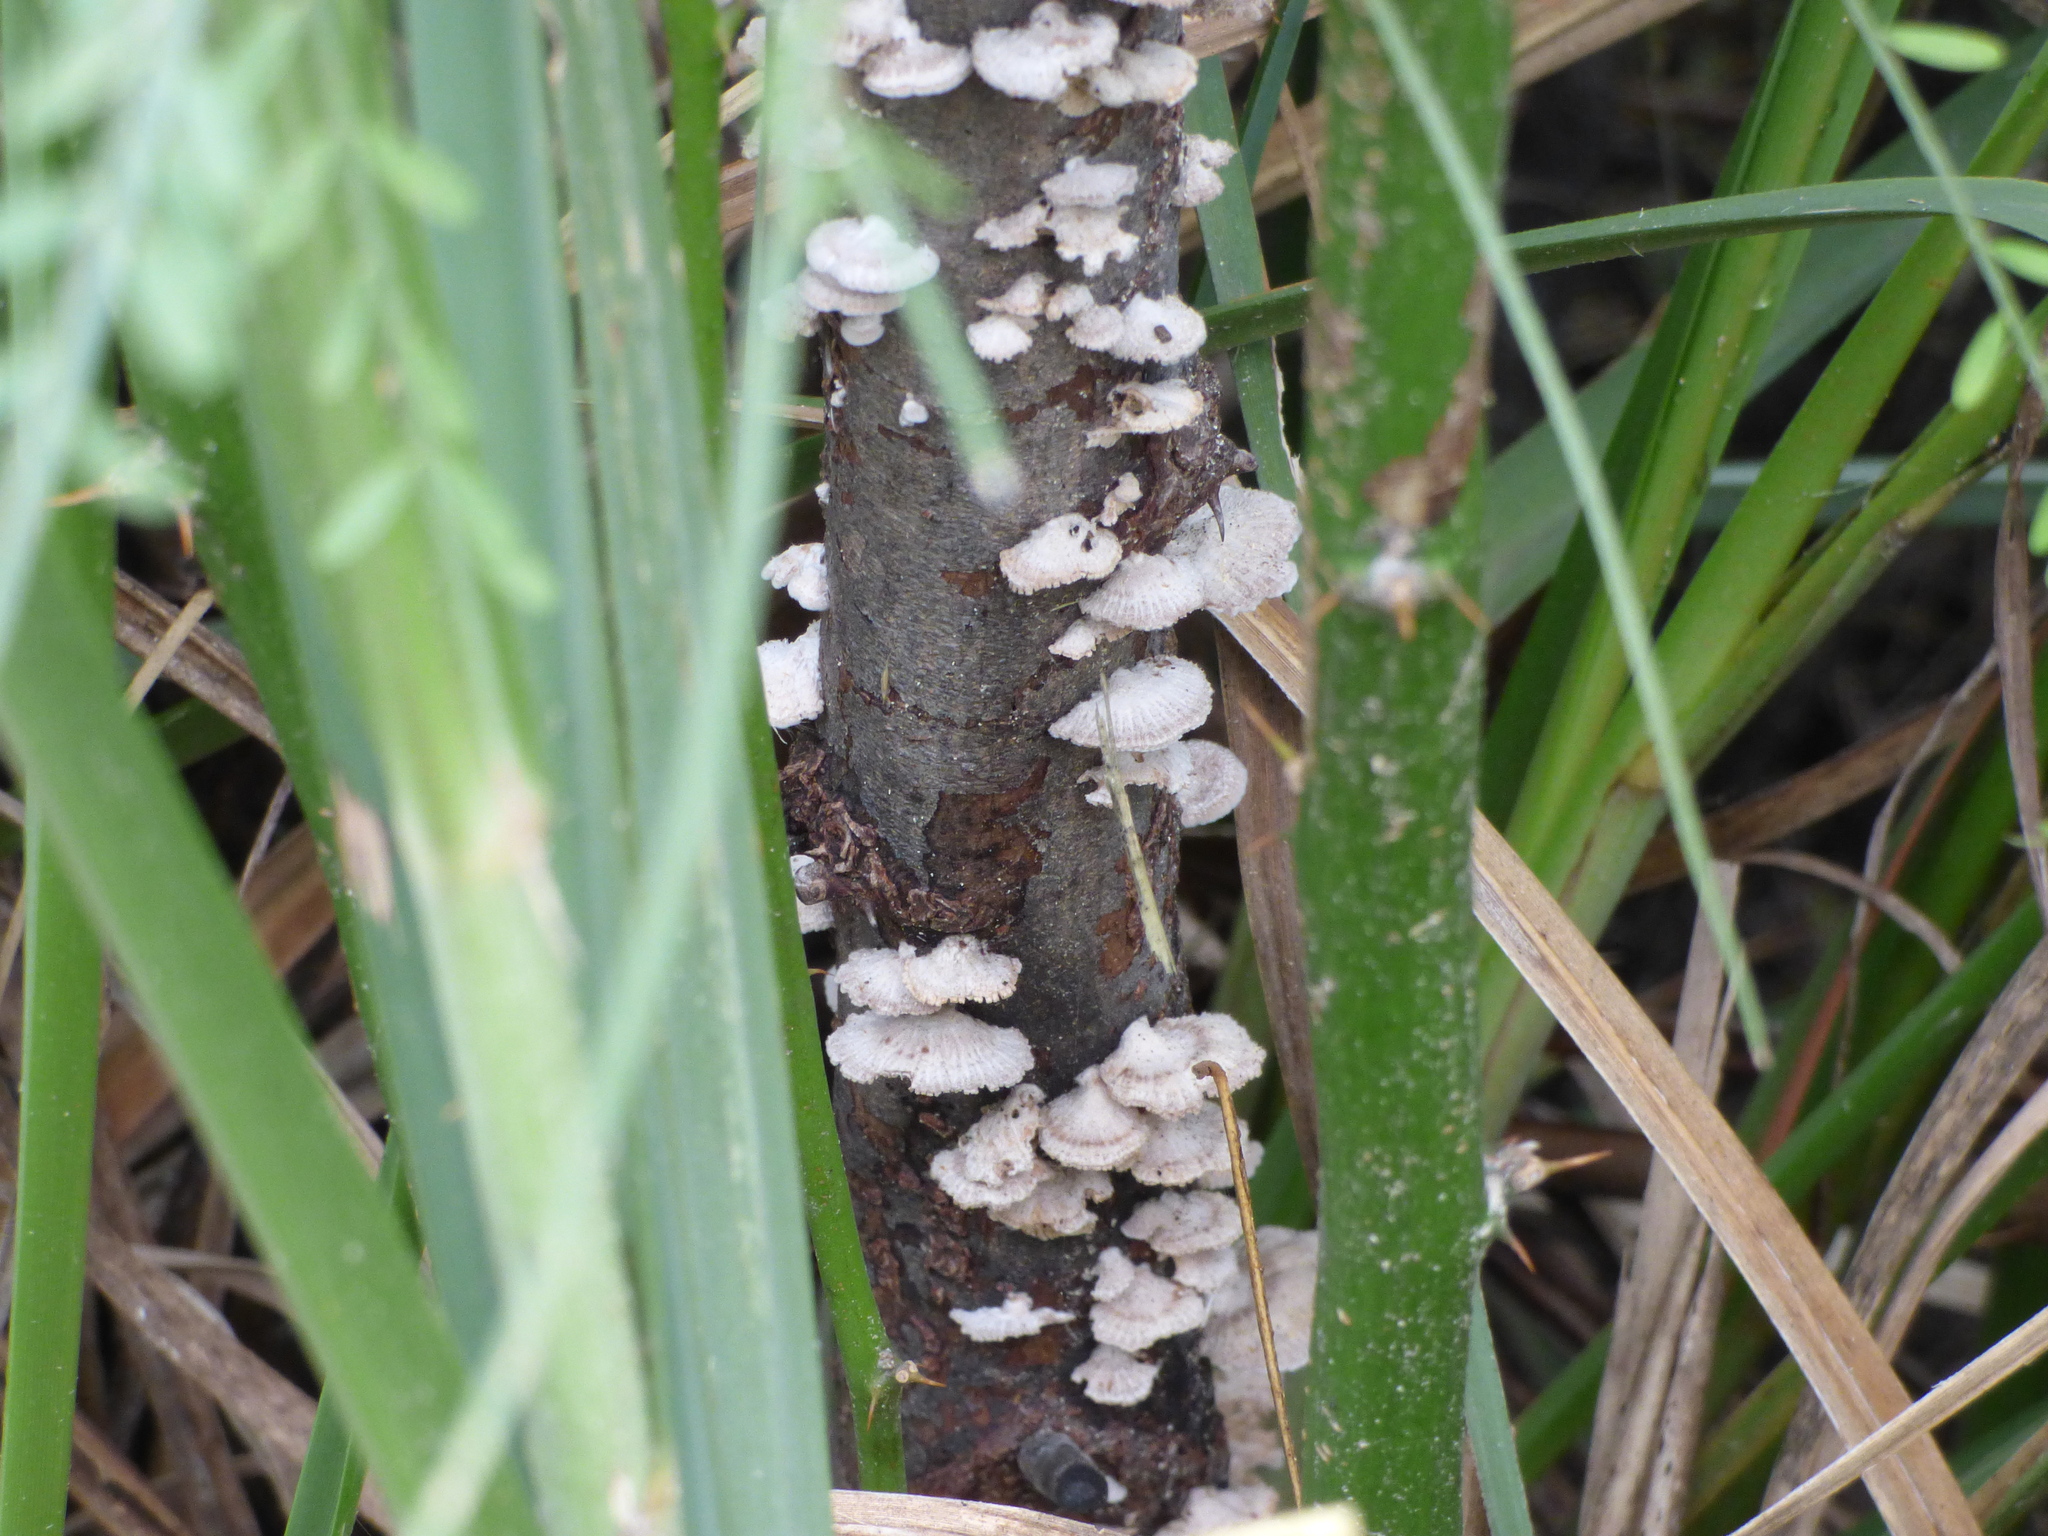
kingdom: Fungi
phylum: Basidiomycota
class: Agaricomycetes
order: Agaricales
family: Schizophyllaceae
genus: Schizophyllum
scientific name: Schizophyllum commune
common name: Common porecrust
